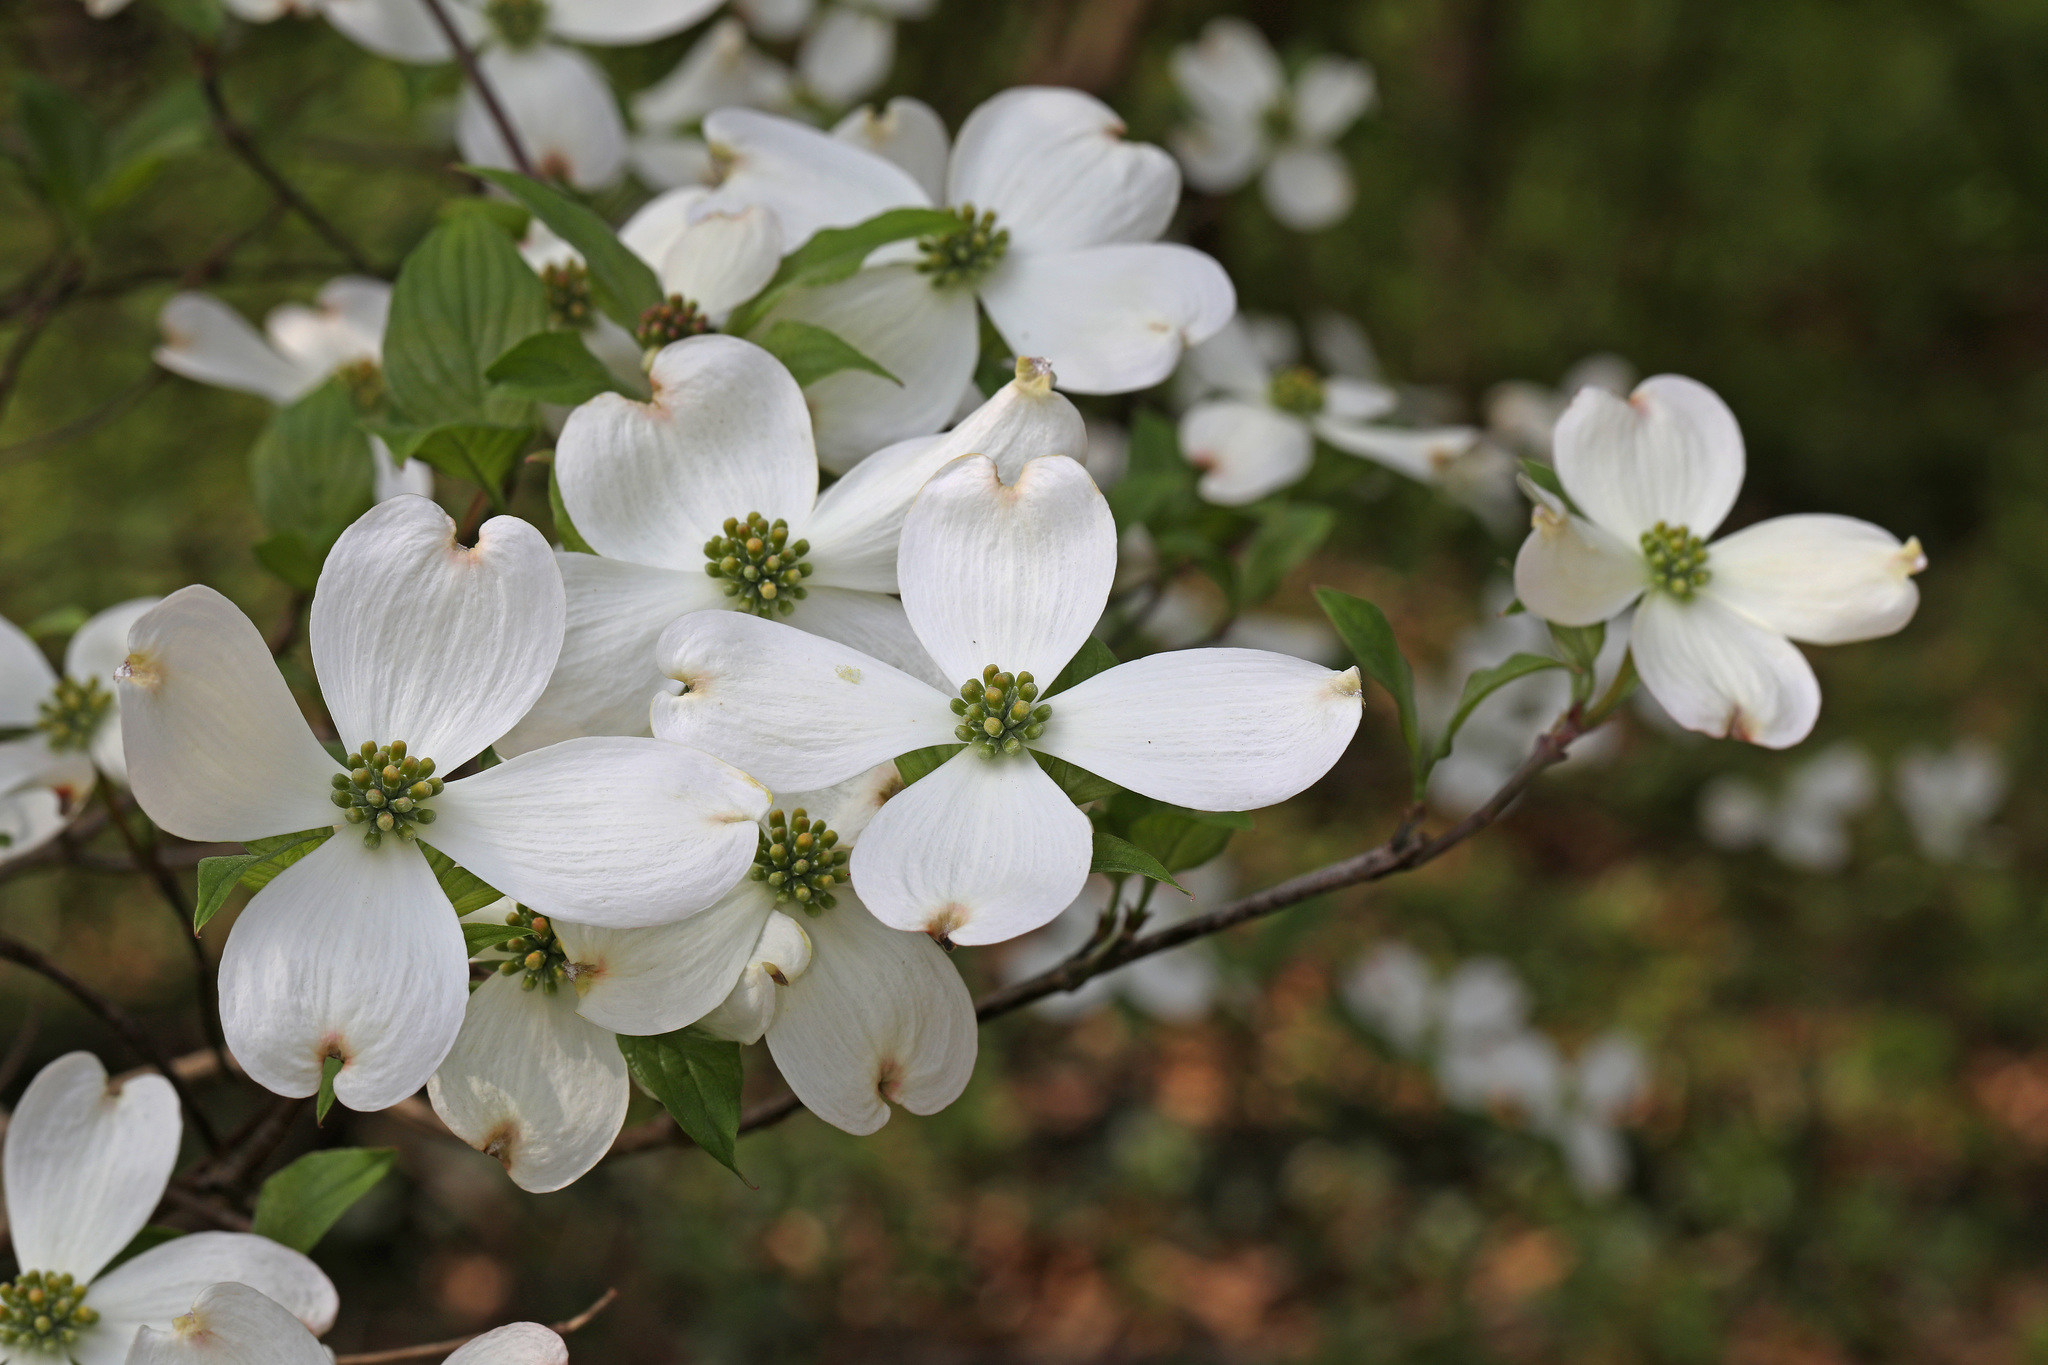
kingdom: Plantae
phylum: Tracheophyta
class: Magnoliopsida
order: Cornales
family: Cornaceae
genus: Cornus
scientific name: Cornus florida
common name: Flowering dogwood
